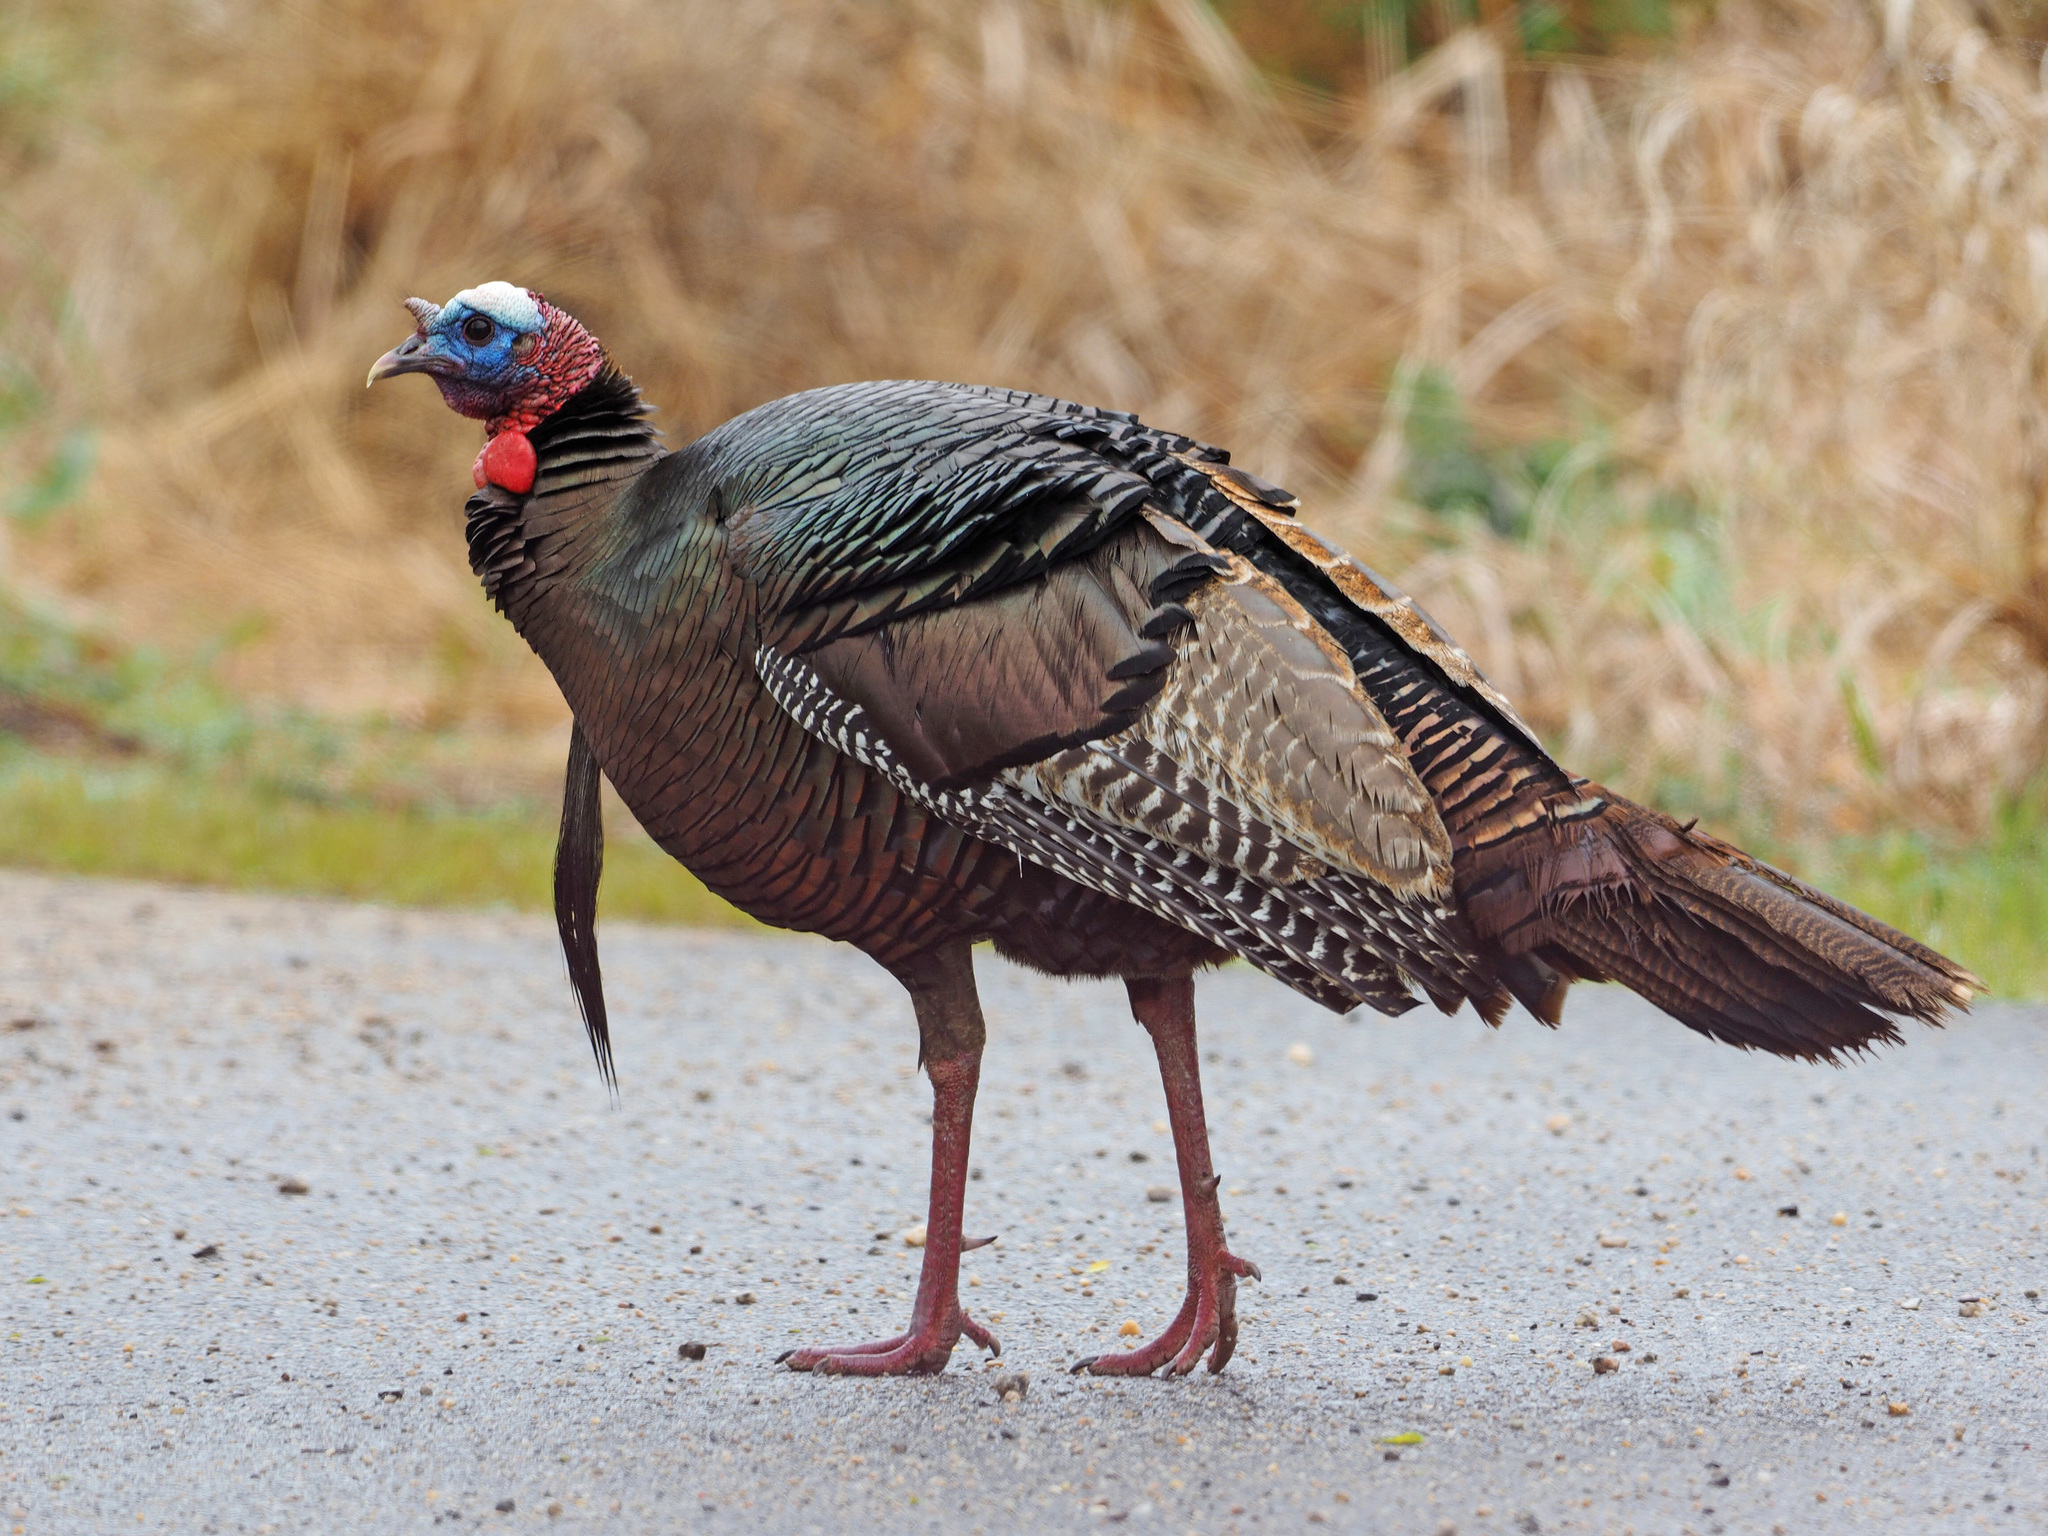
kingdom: Animalia
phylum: Chordata
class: Aves
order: Galliformes
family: Phasianidae
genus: Meleagris
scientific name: Meleagris gallopavo
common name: Wild turkey
